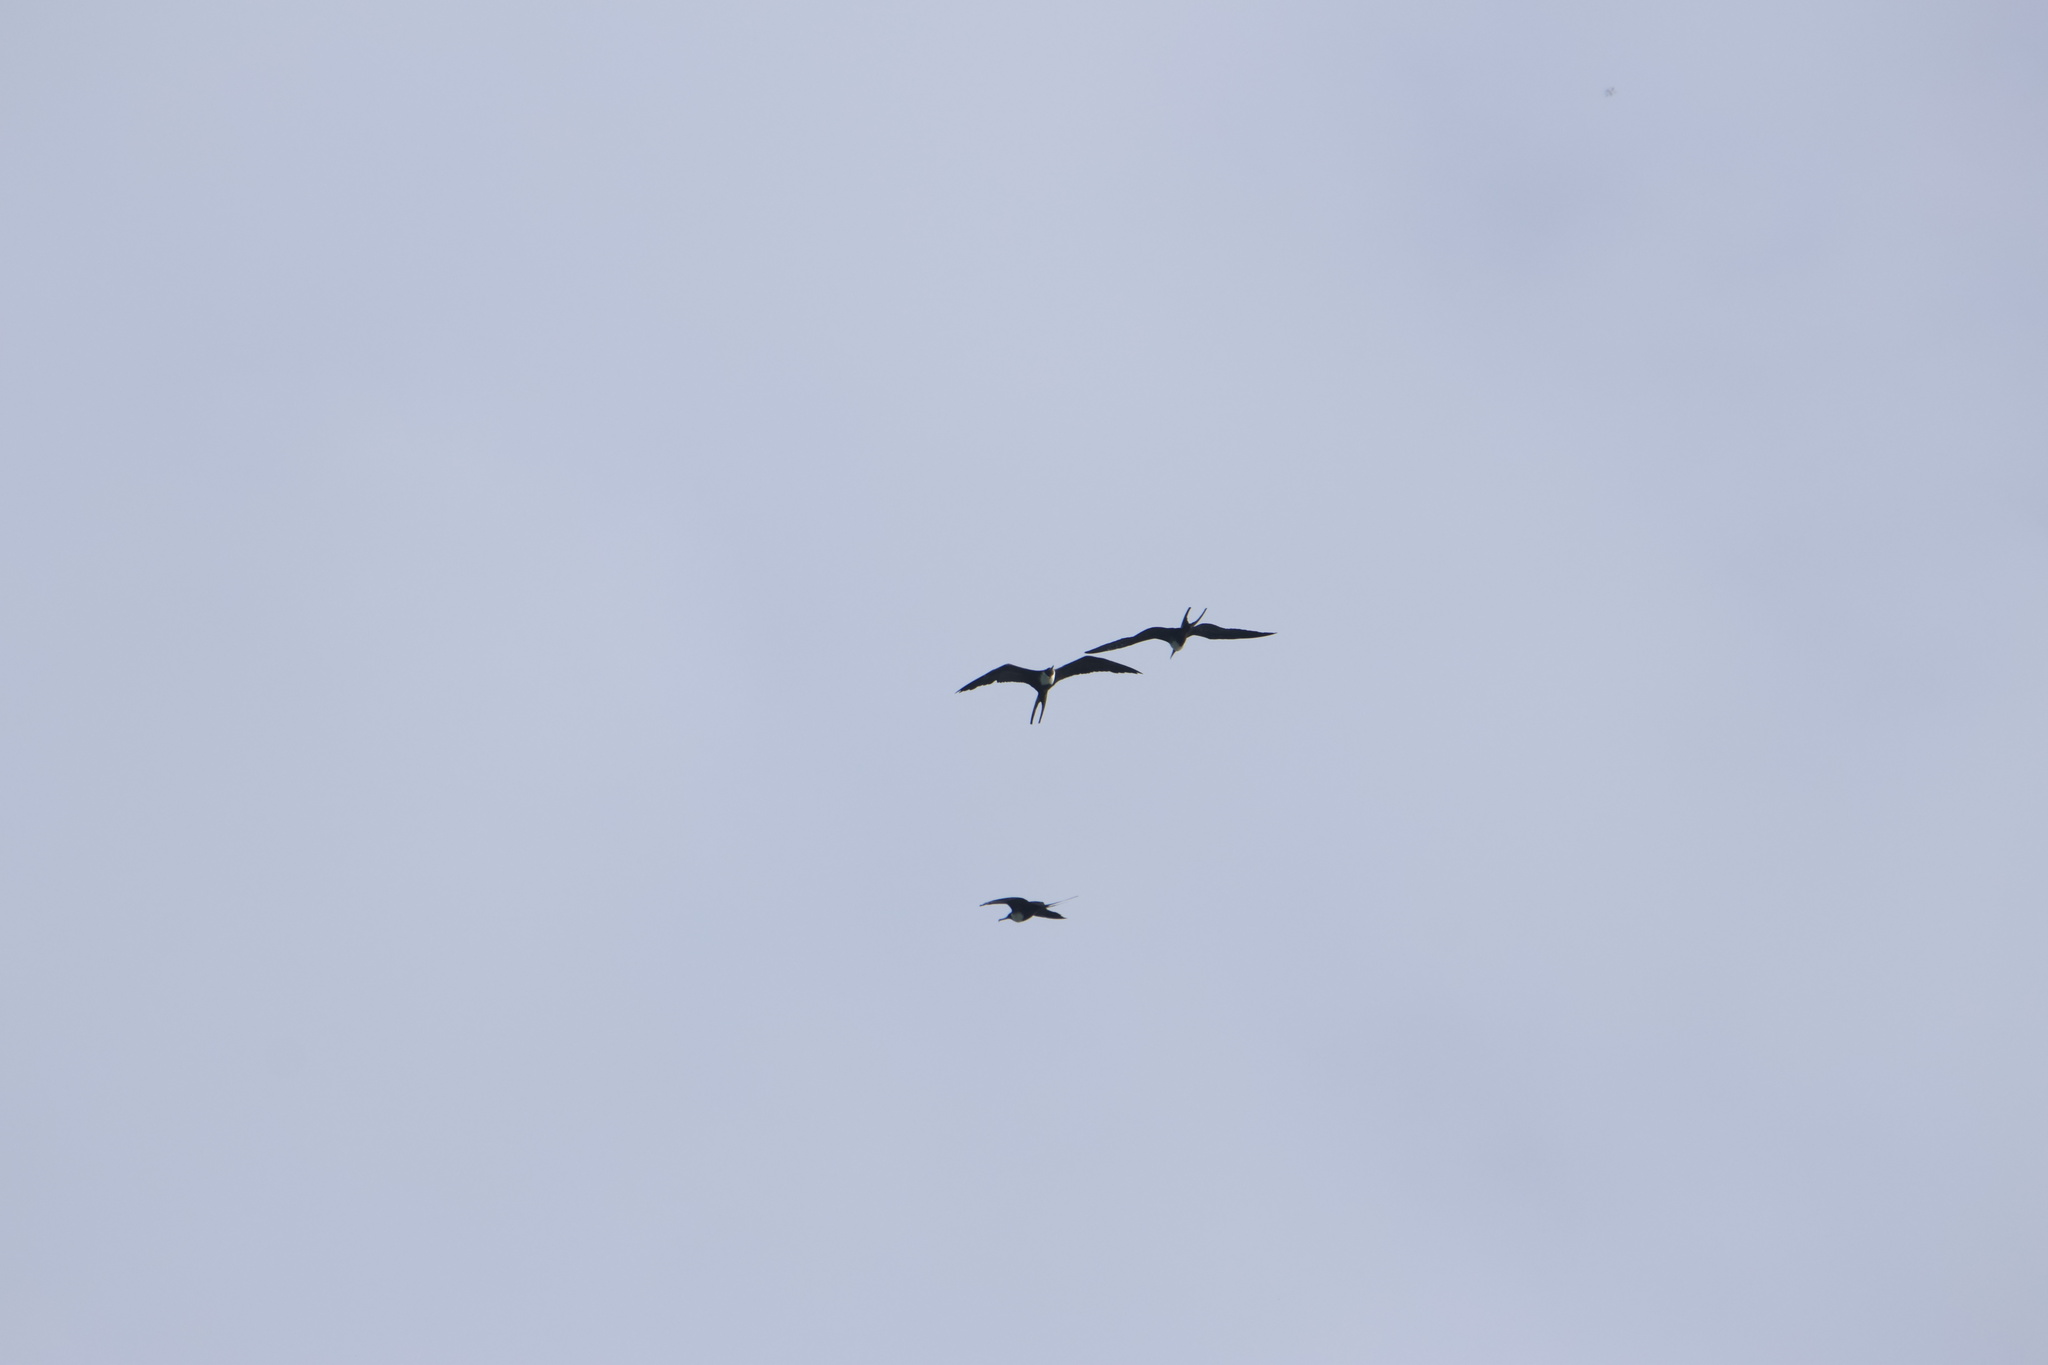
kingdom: Animalia
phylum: Chordata
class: Aves
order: Suliformes
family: Fregatidae
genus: Fregata
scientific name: Fregata magnificens
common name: Magnificent frigatebird
